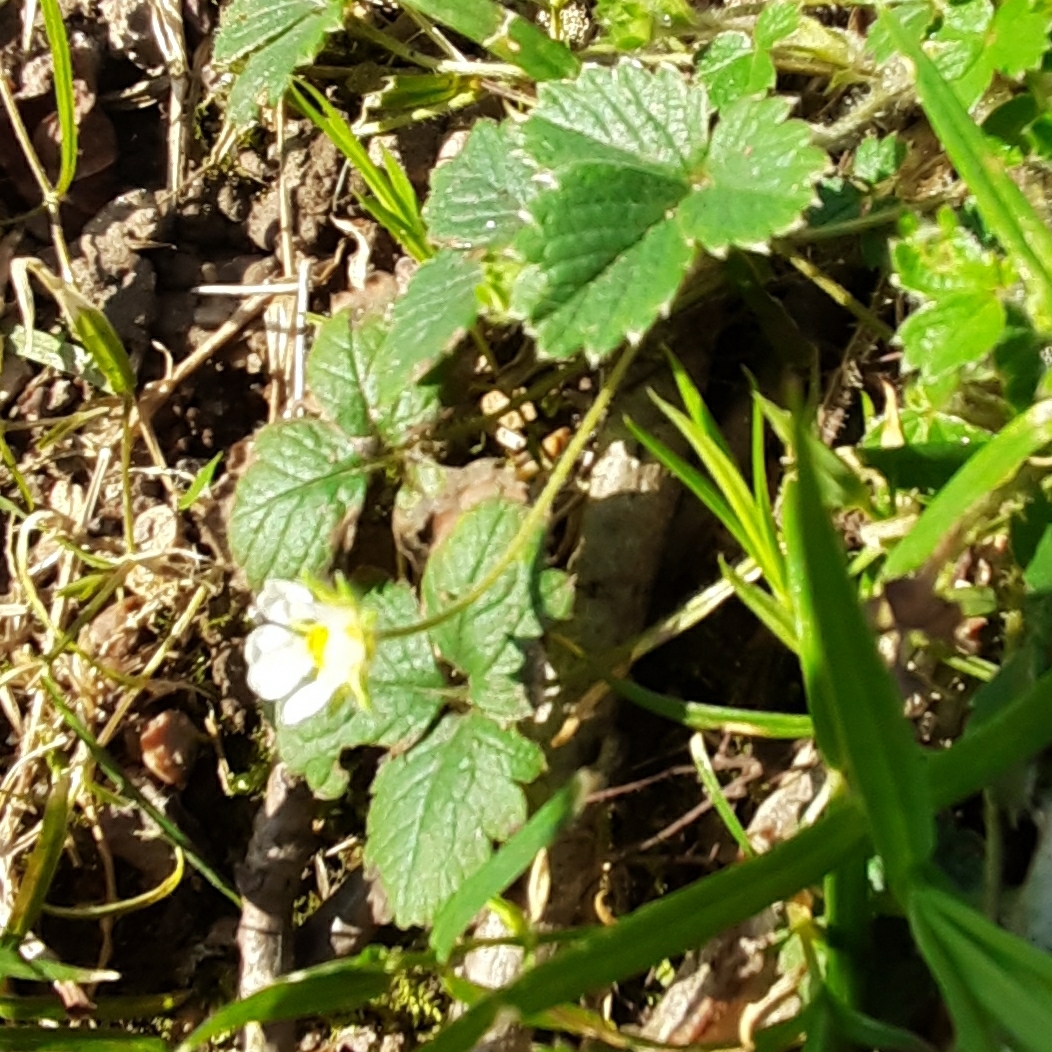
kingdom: Plantae
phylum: Tracheophyta
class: Magnoliopsida
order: Rosales
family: Rosaceae
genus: Potentilla
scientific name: Potentilla sterilis
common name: Barren strawberry
